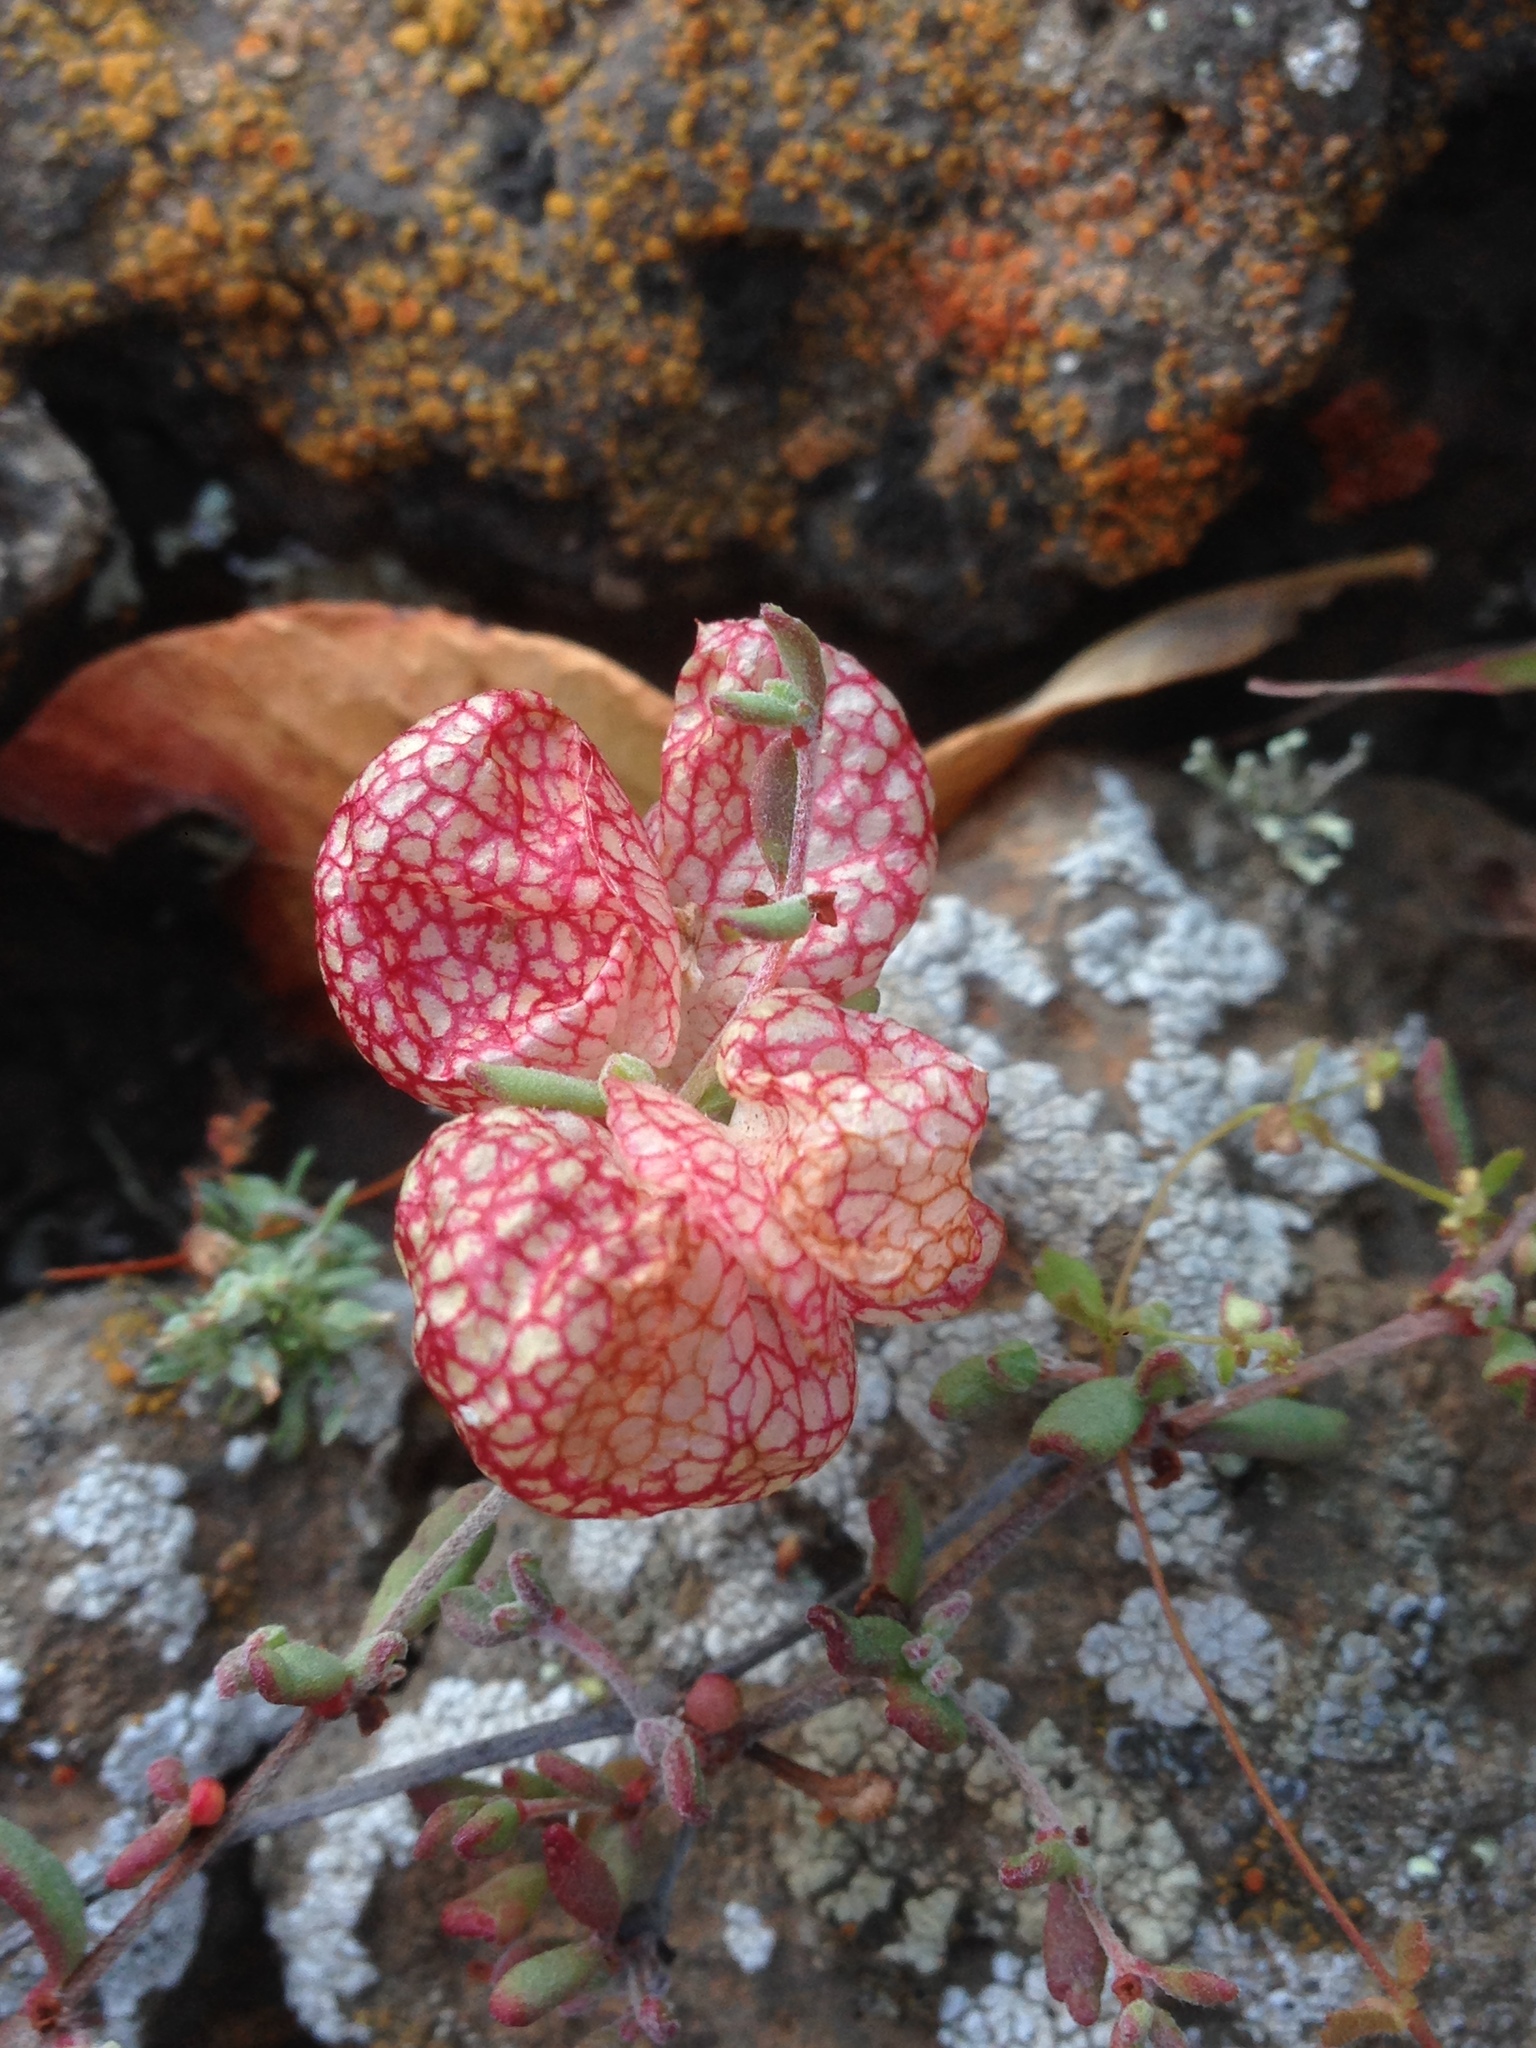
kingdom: Plantae
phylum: Tracheophyta
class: Magnoliopsida
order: Caryophyllales
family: Polygonaceae
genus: Harfordia
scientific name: Harfordia macroptera
